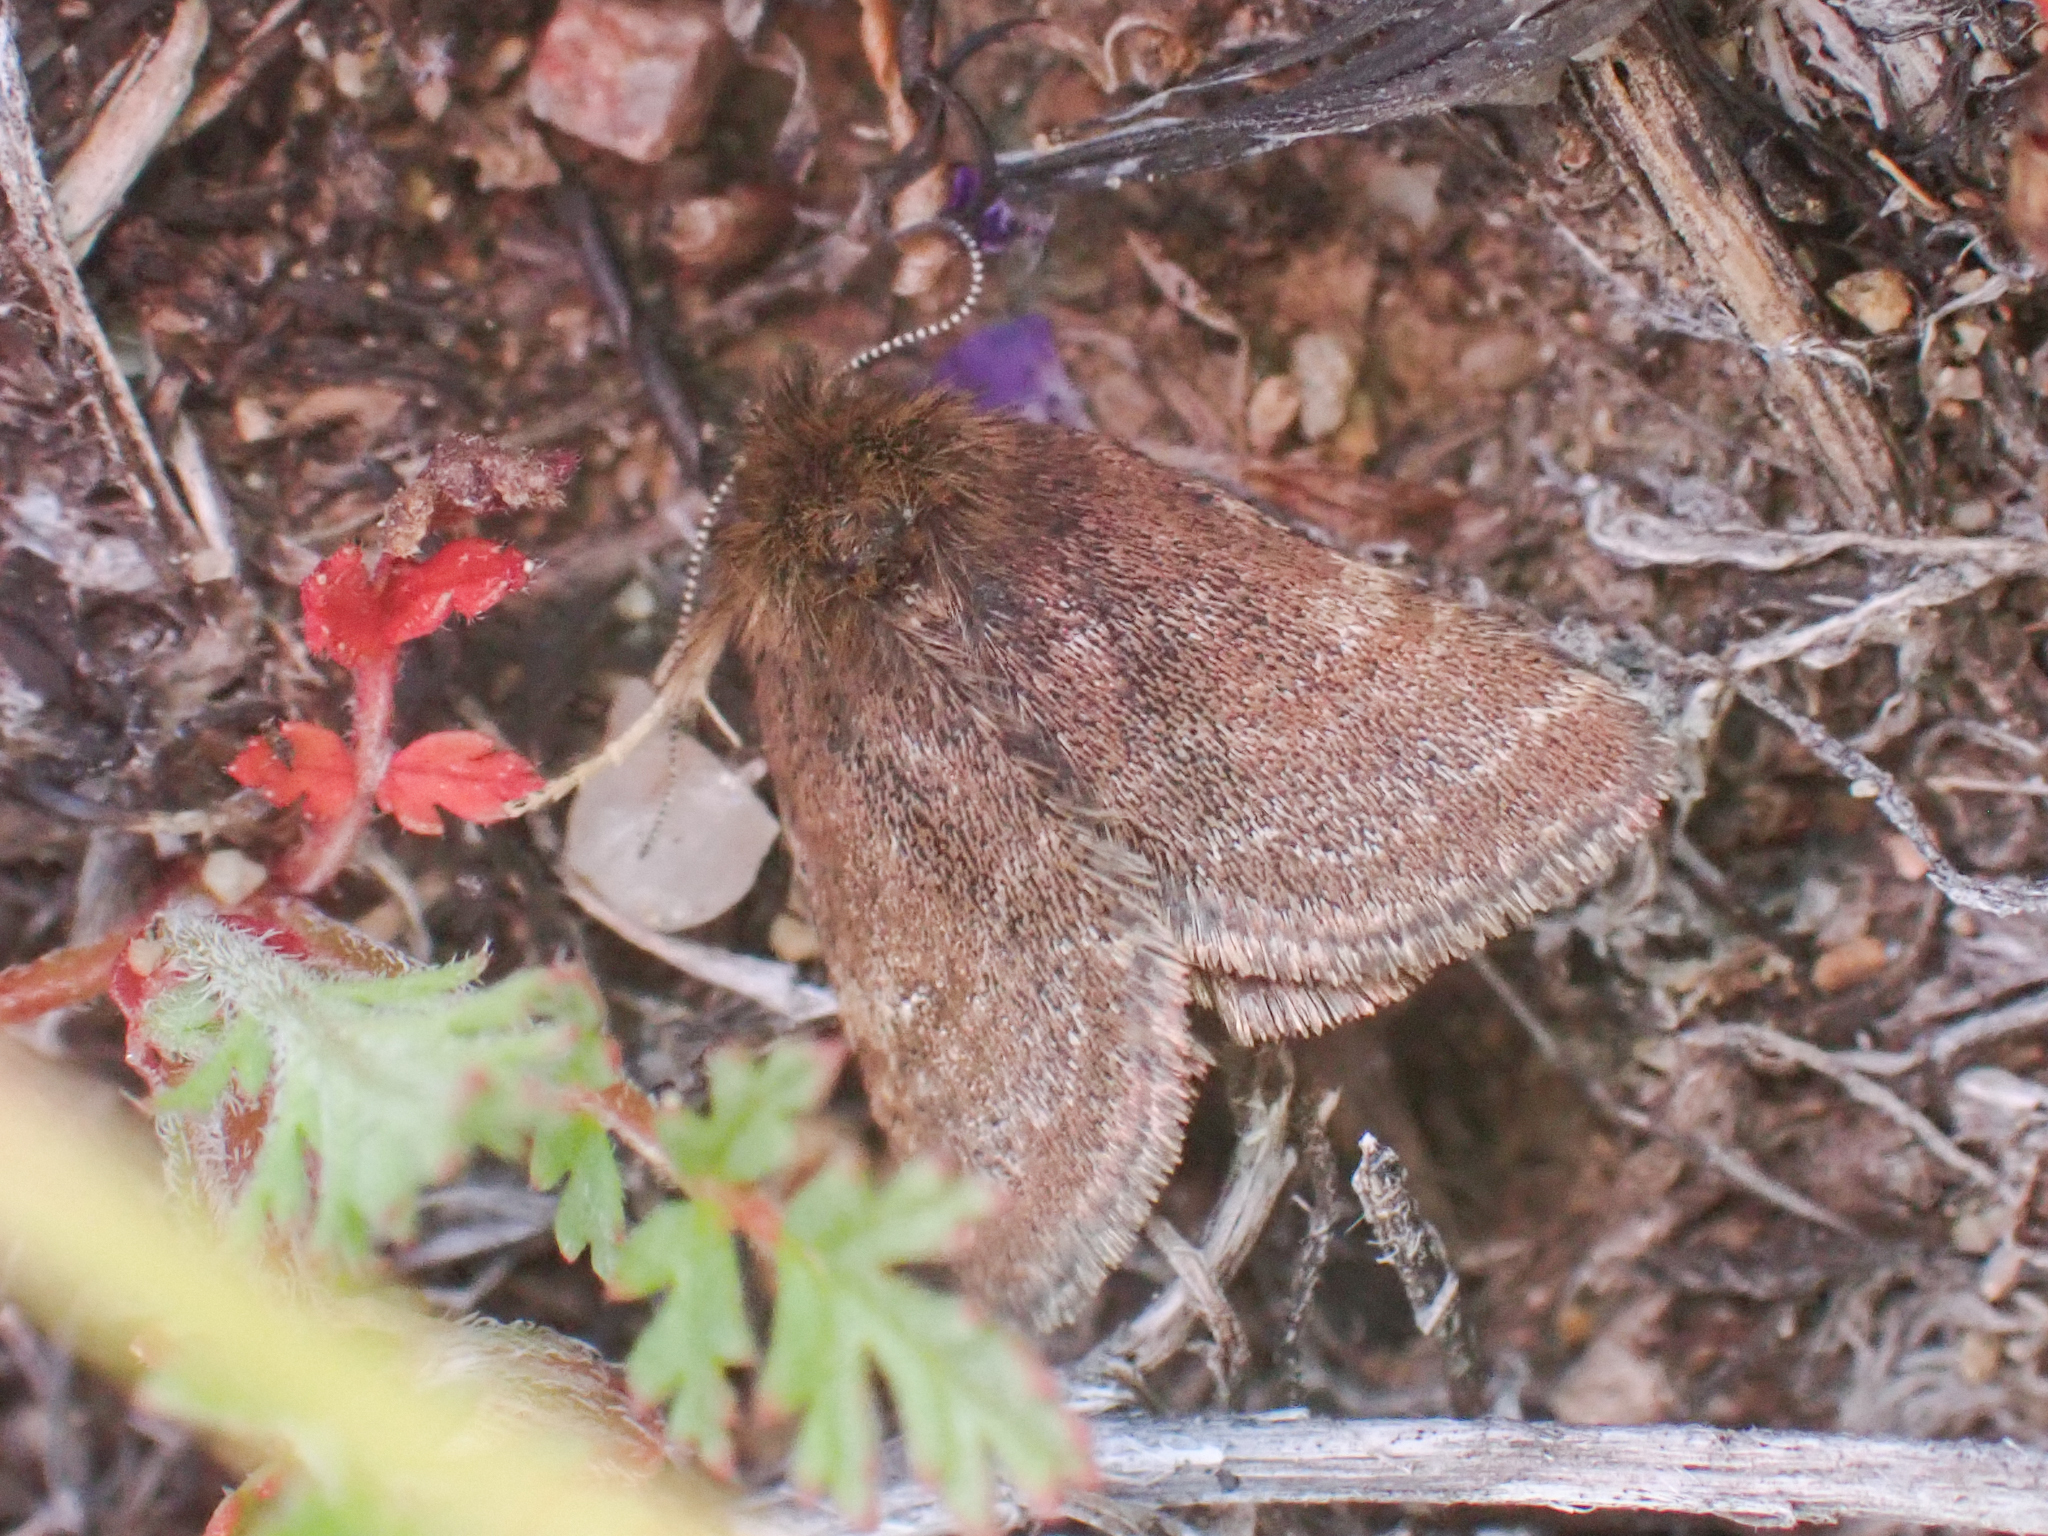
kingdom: Animalia
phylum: Arthropoda
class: Insecta
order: Lepidoptera
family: Noctuidae
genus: Axenus
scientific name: Axenus arvalis
